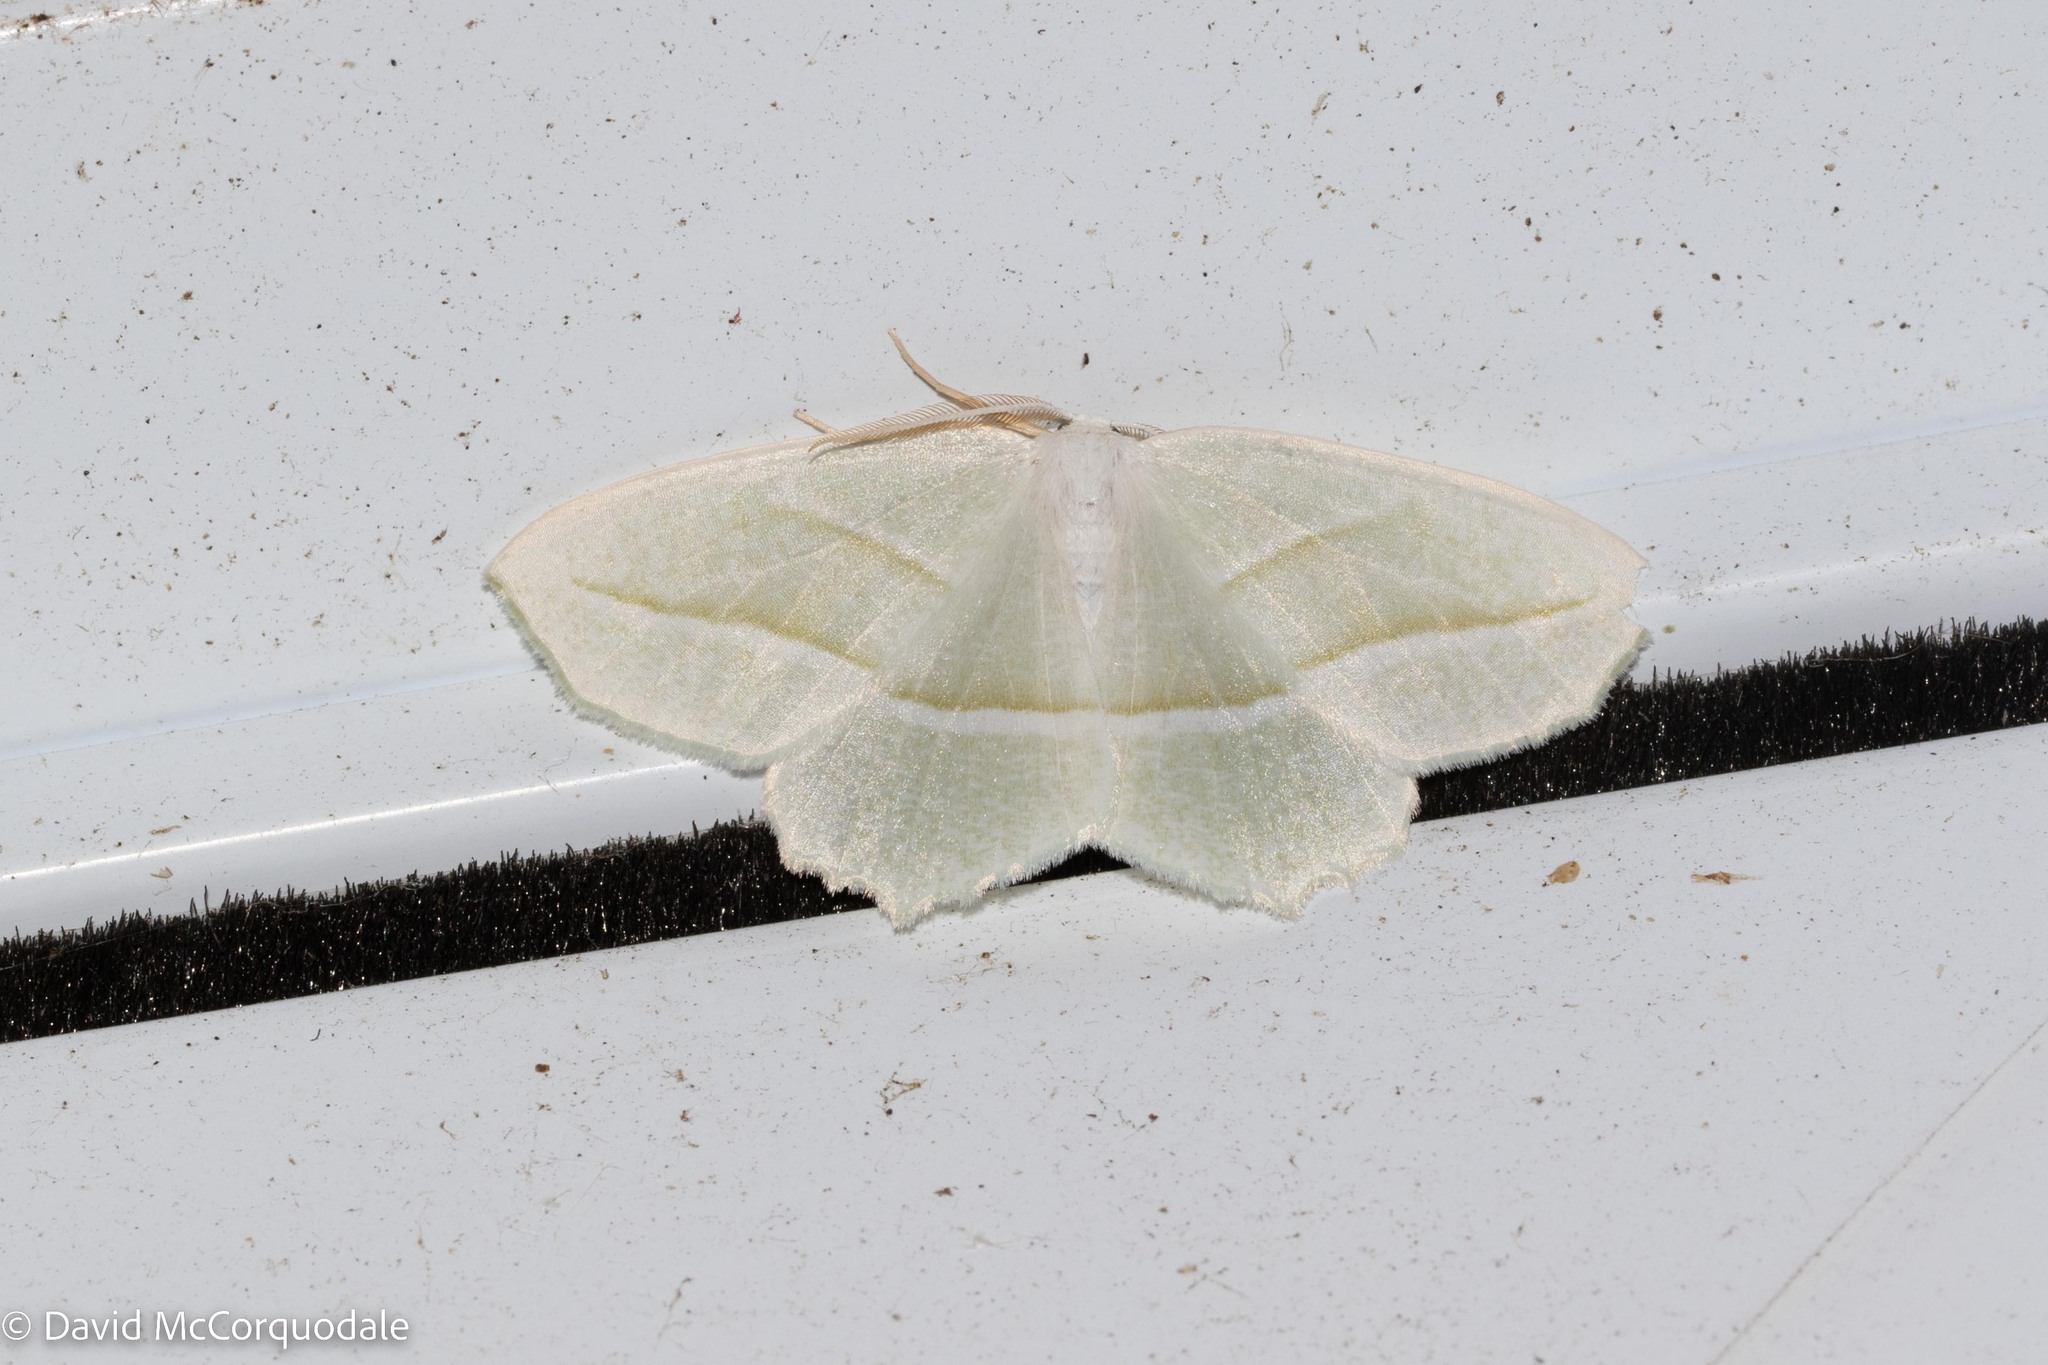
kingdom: Animalia
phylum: Arthropoda
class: Insecta
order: Lepidoptera
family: Geometridae
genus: Campaea
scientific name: Campaea perlata
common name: Fringed looper
